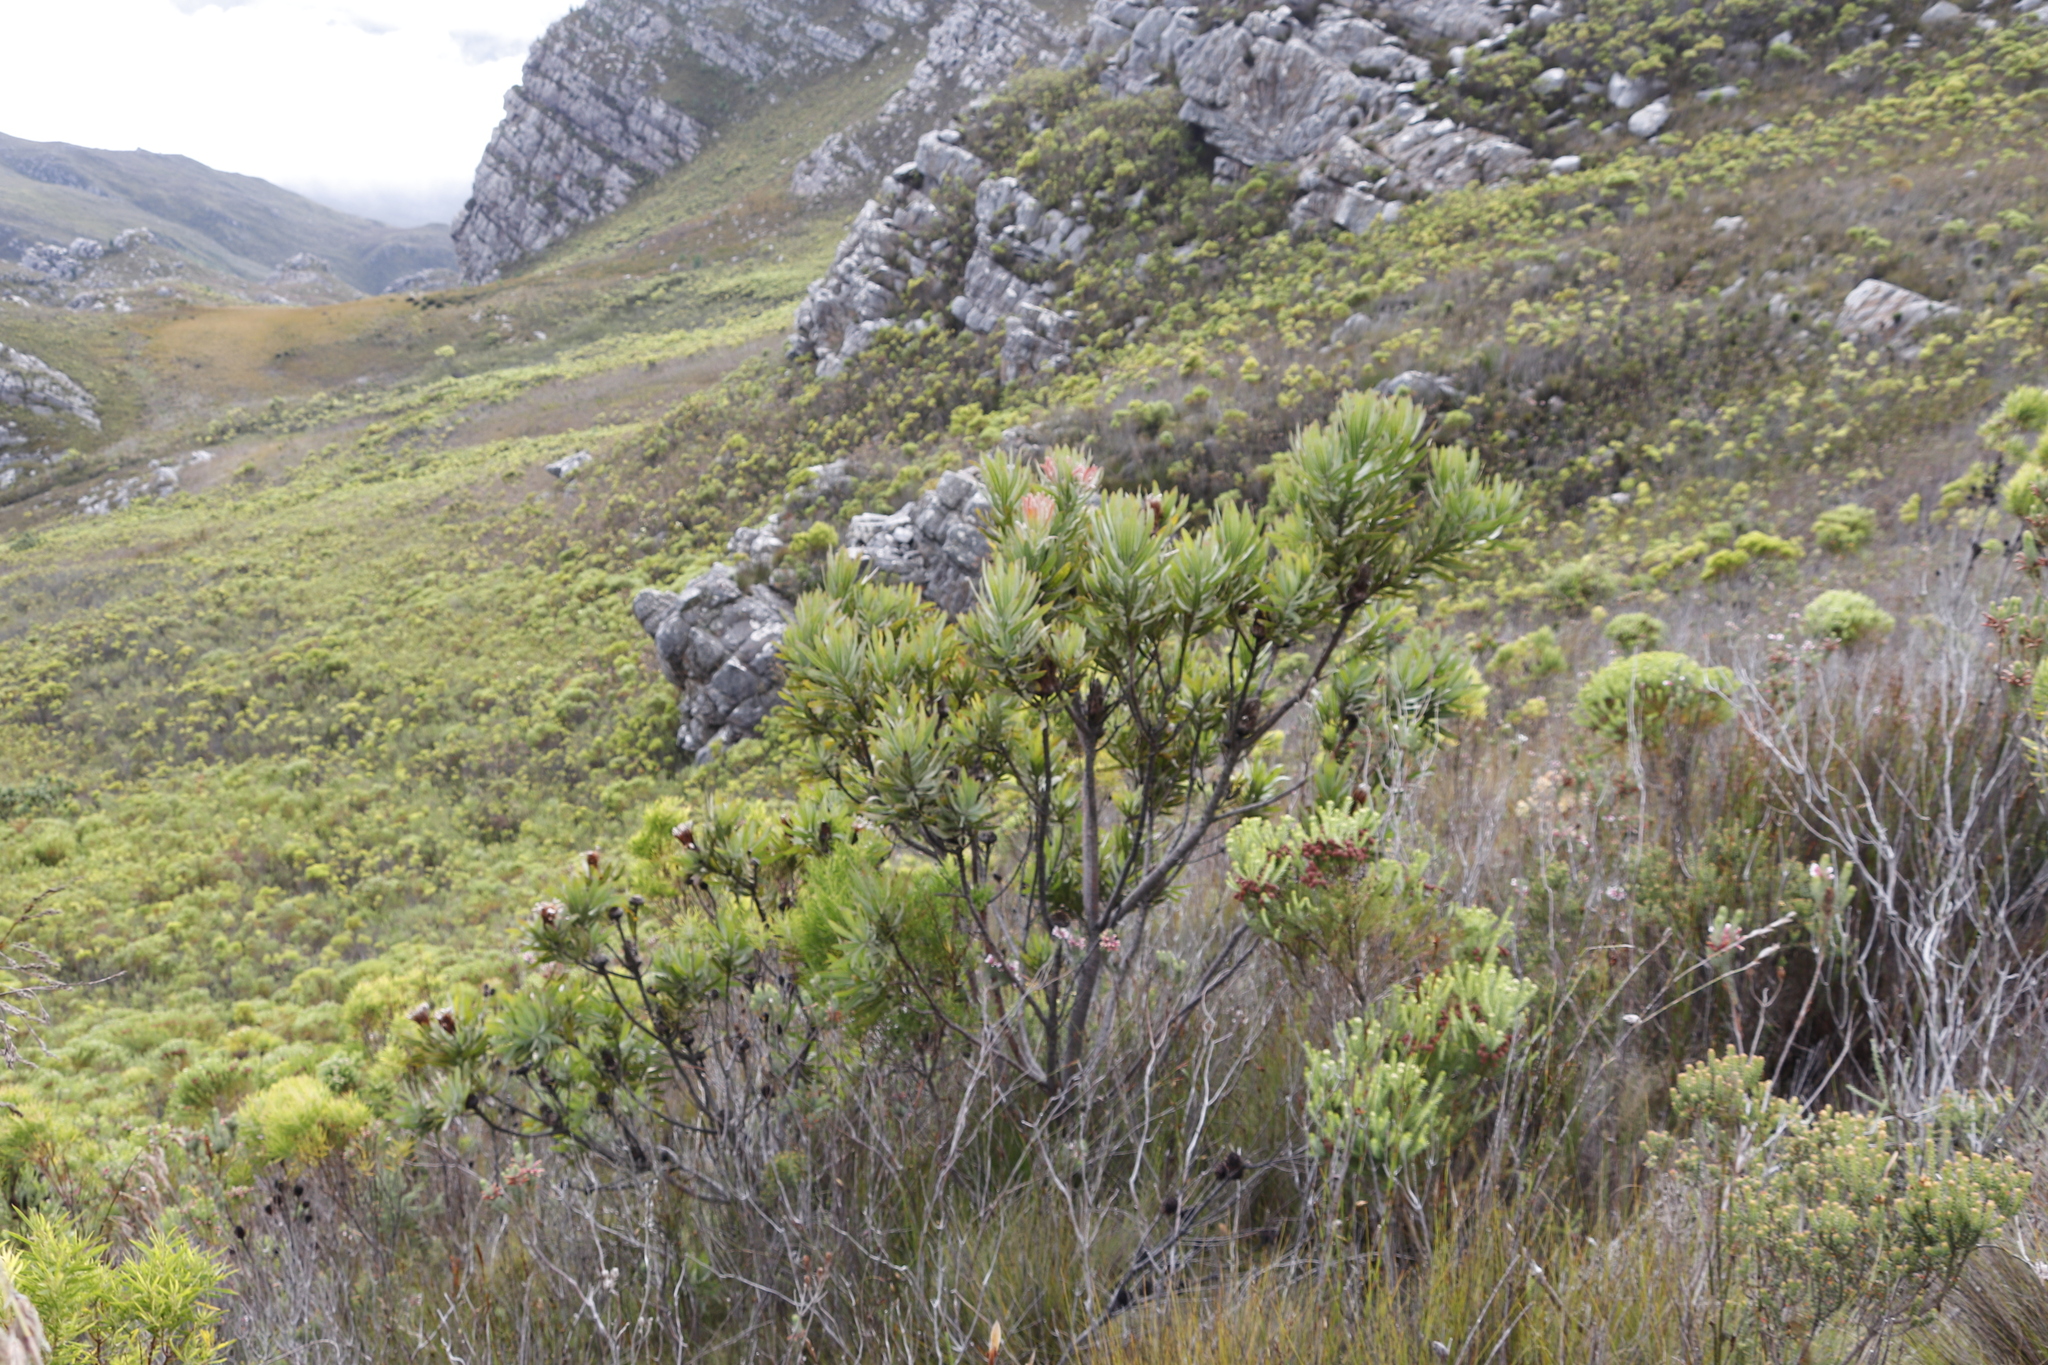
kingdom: Plantae
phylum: Tracheophyta
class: Magnoliopsida
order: Proteales
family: Proteaceae
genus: Protea
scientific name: Protea neriifolia
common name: Blue sugarbush
